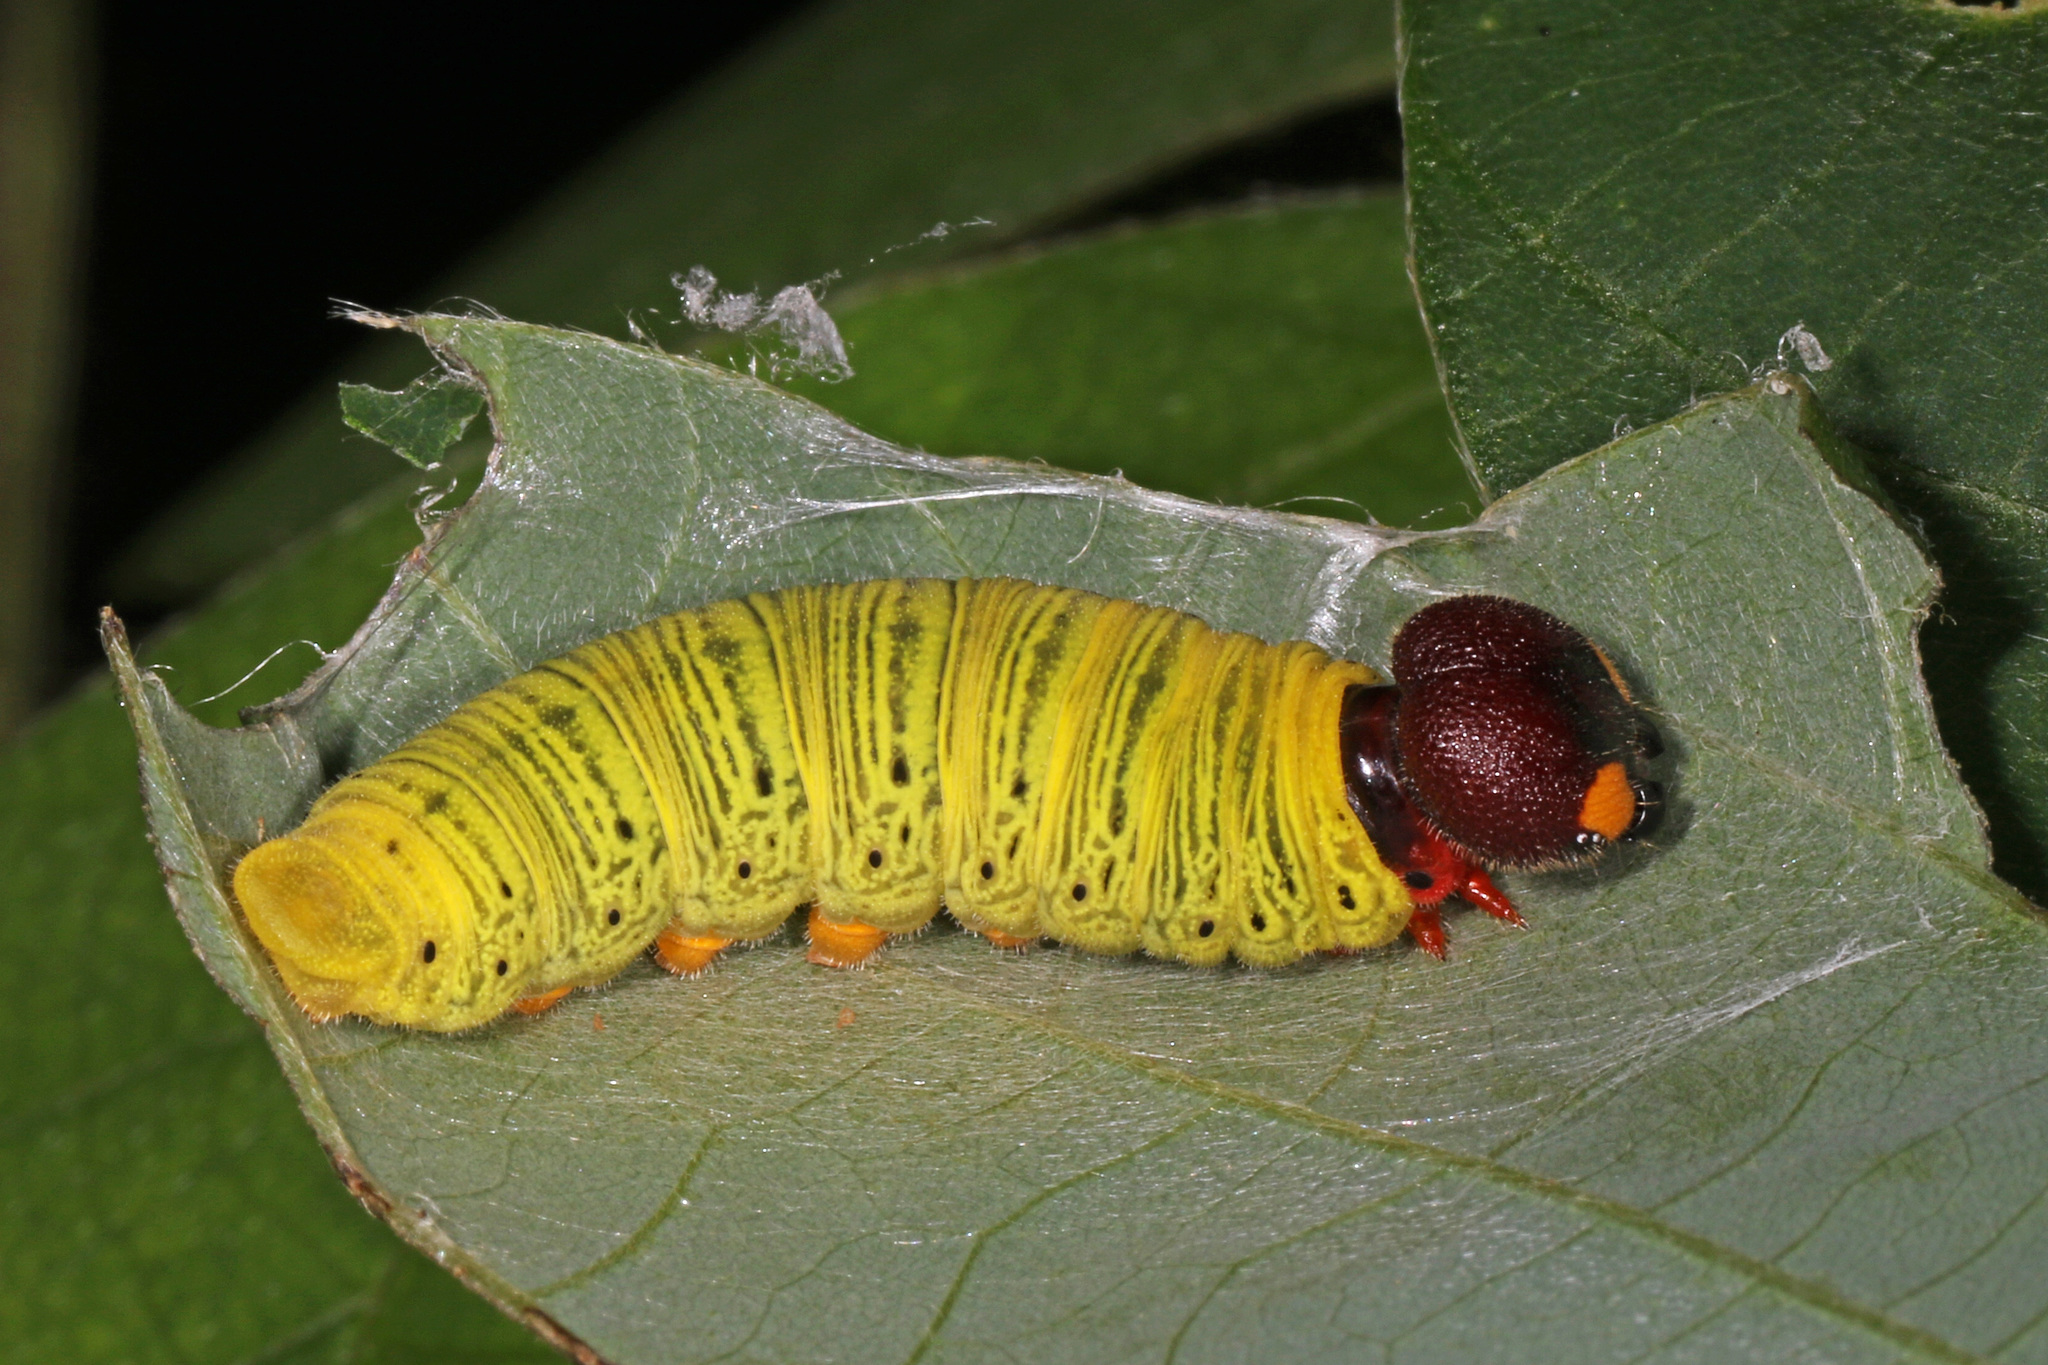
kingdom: Animalia
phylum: Arthropoda
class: Insecta
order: Lepidoptera
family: Hesperiidae
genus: Epargyreus
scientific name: Epargyreus clarus
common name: Silver-spotted skipper
